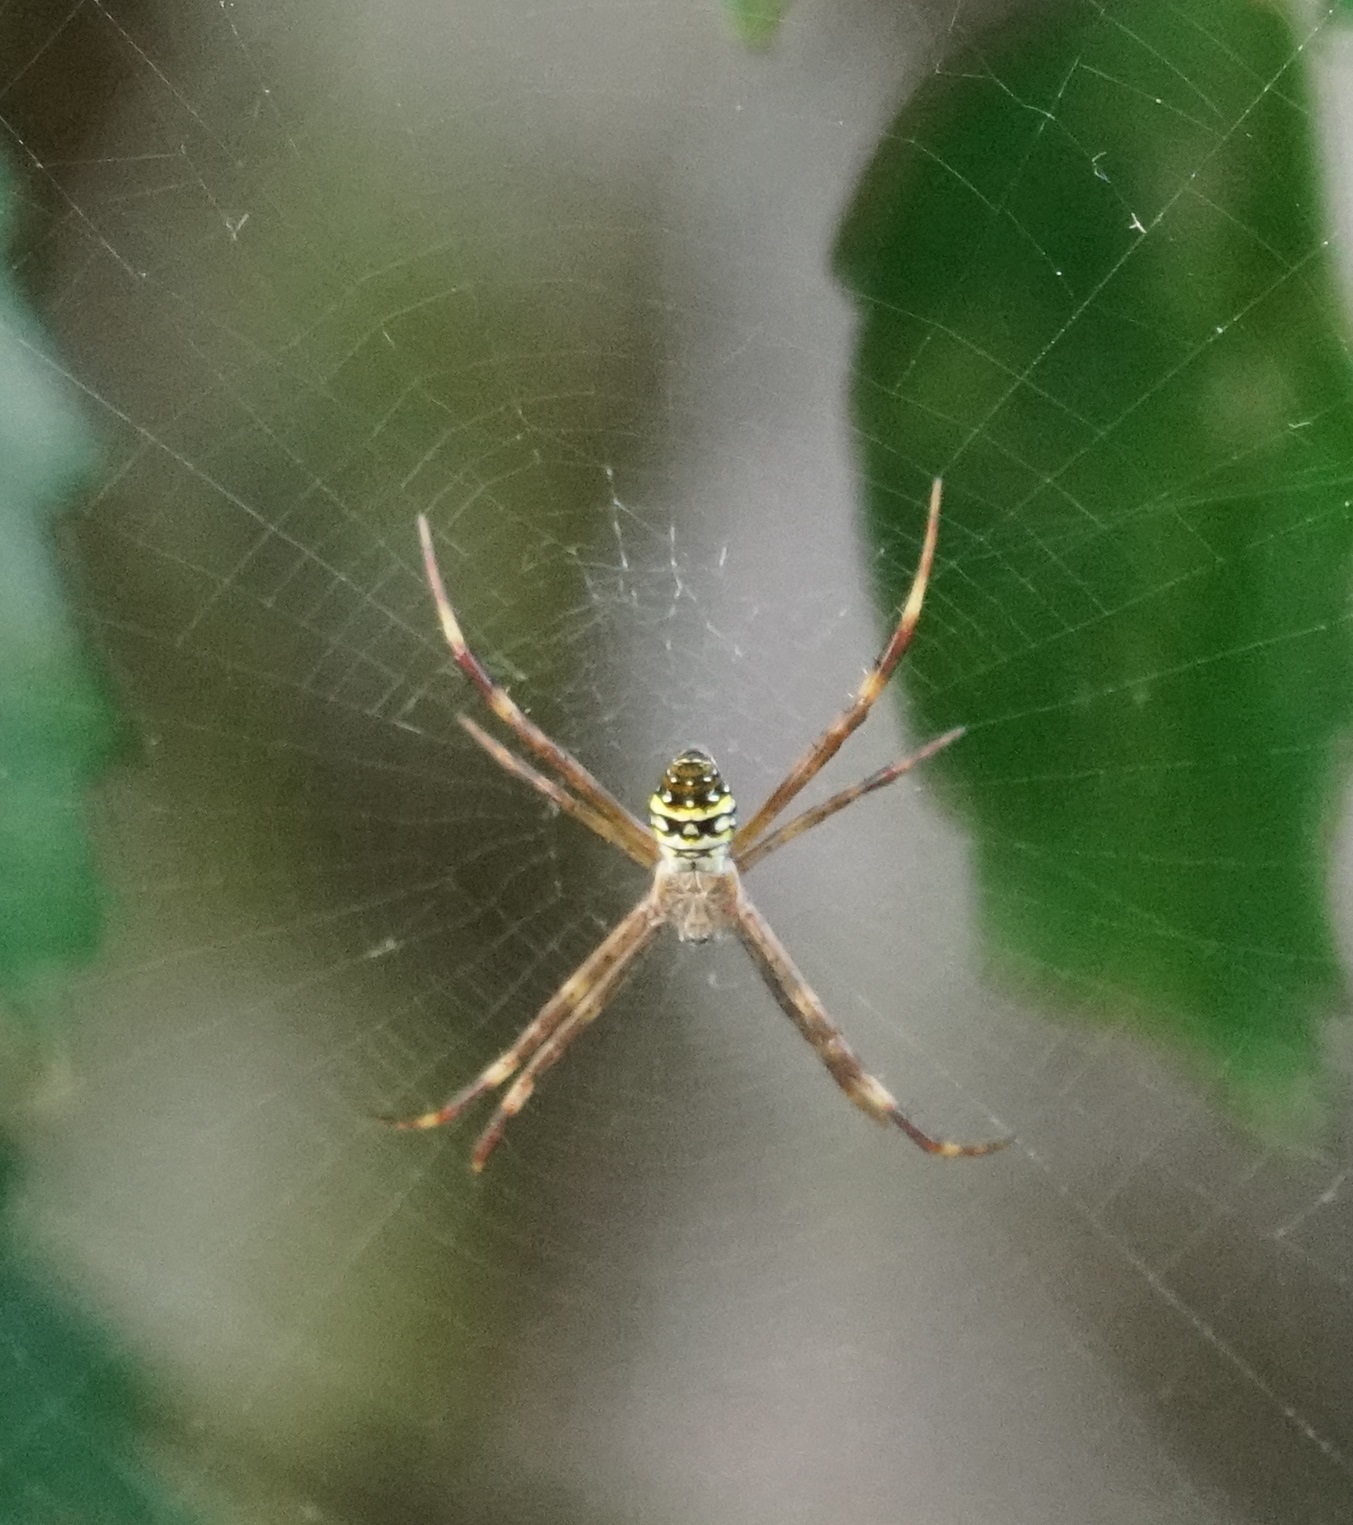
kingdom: Animalia
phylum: Arthropoda
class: Arachnida
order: Araneae
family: Araneidae
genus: Argiope
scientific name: Argiope aetherea
